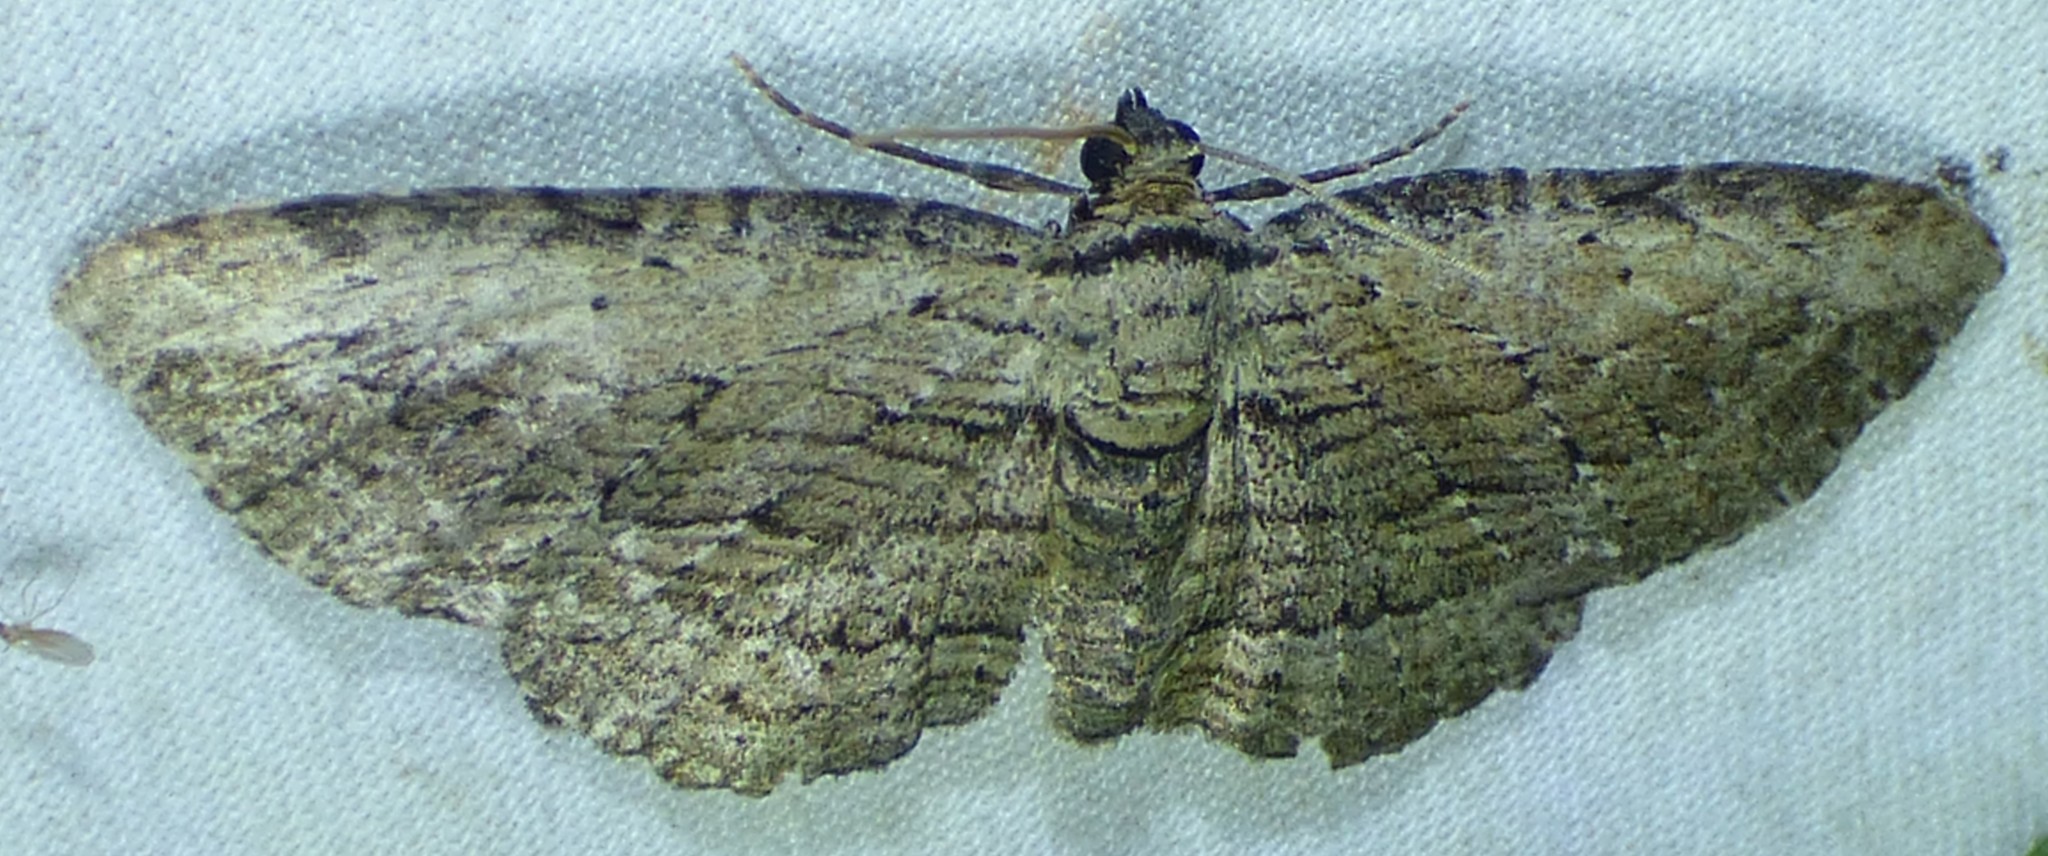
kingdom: Animalia
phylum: Arthropoda
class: Insecta
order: Lepidoptera
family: Geometridae
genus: Horisme
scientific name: Horisme intestinata
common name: Brown bark carpet
